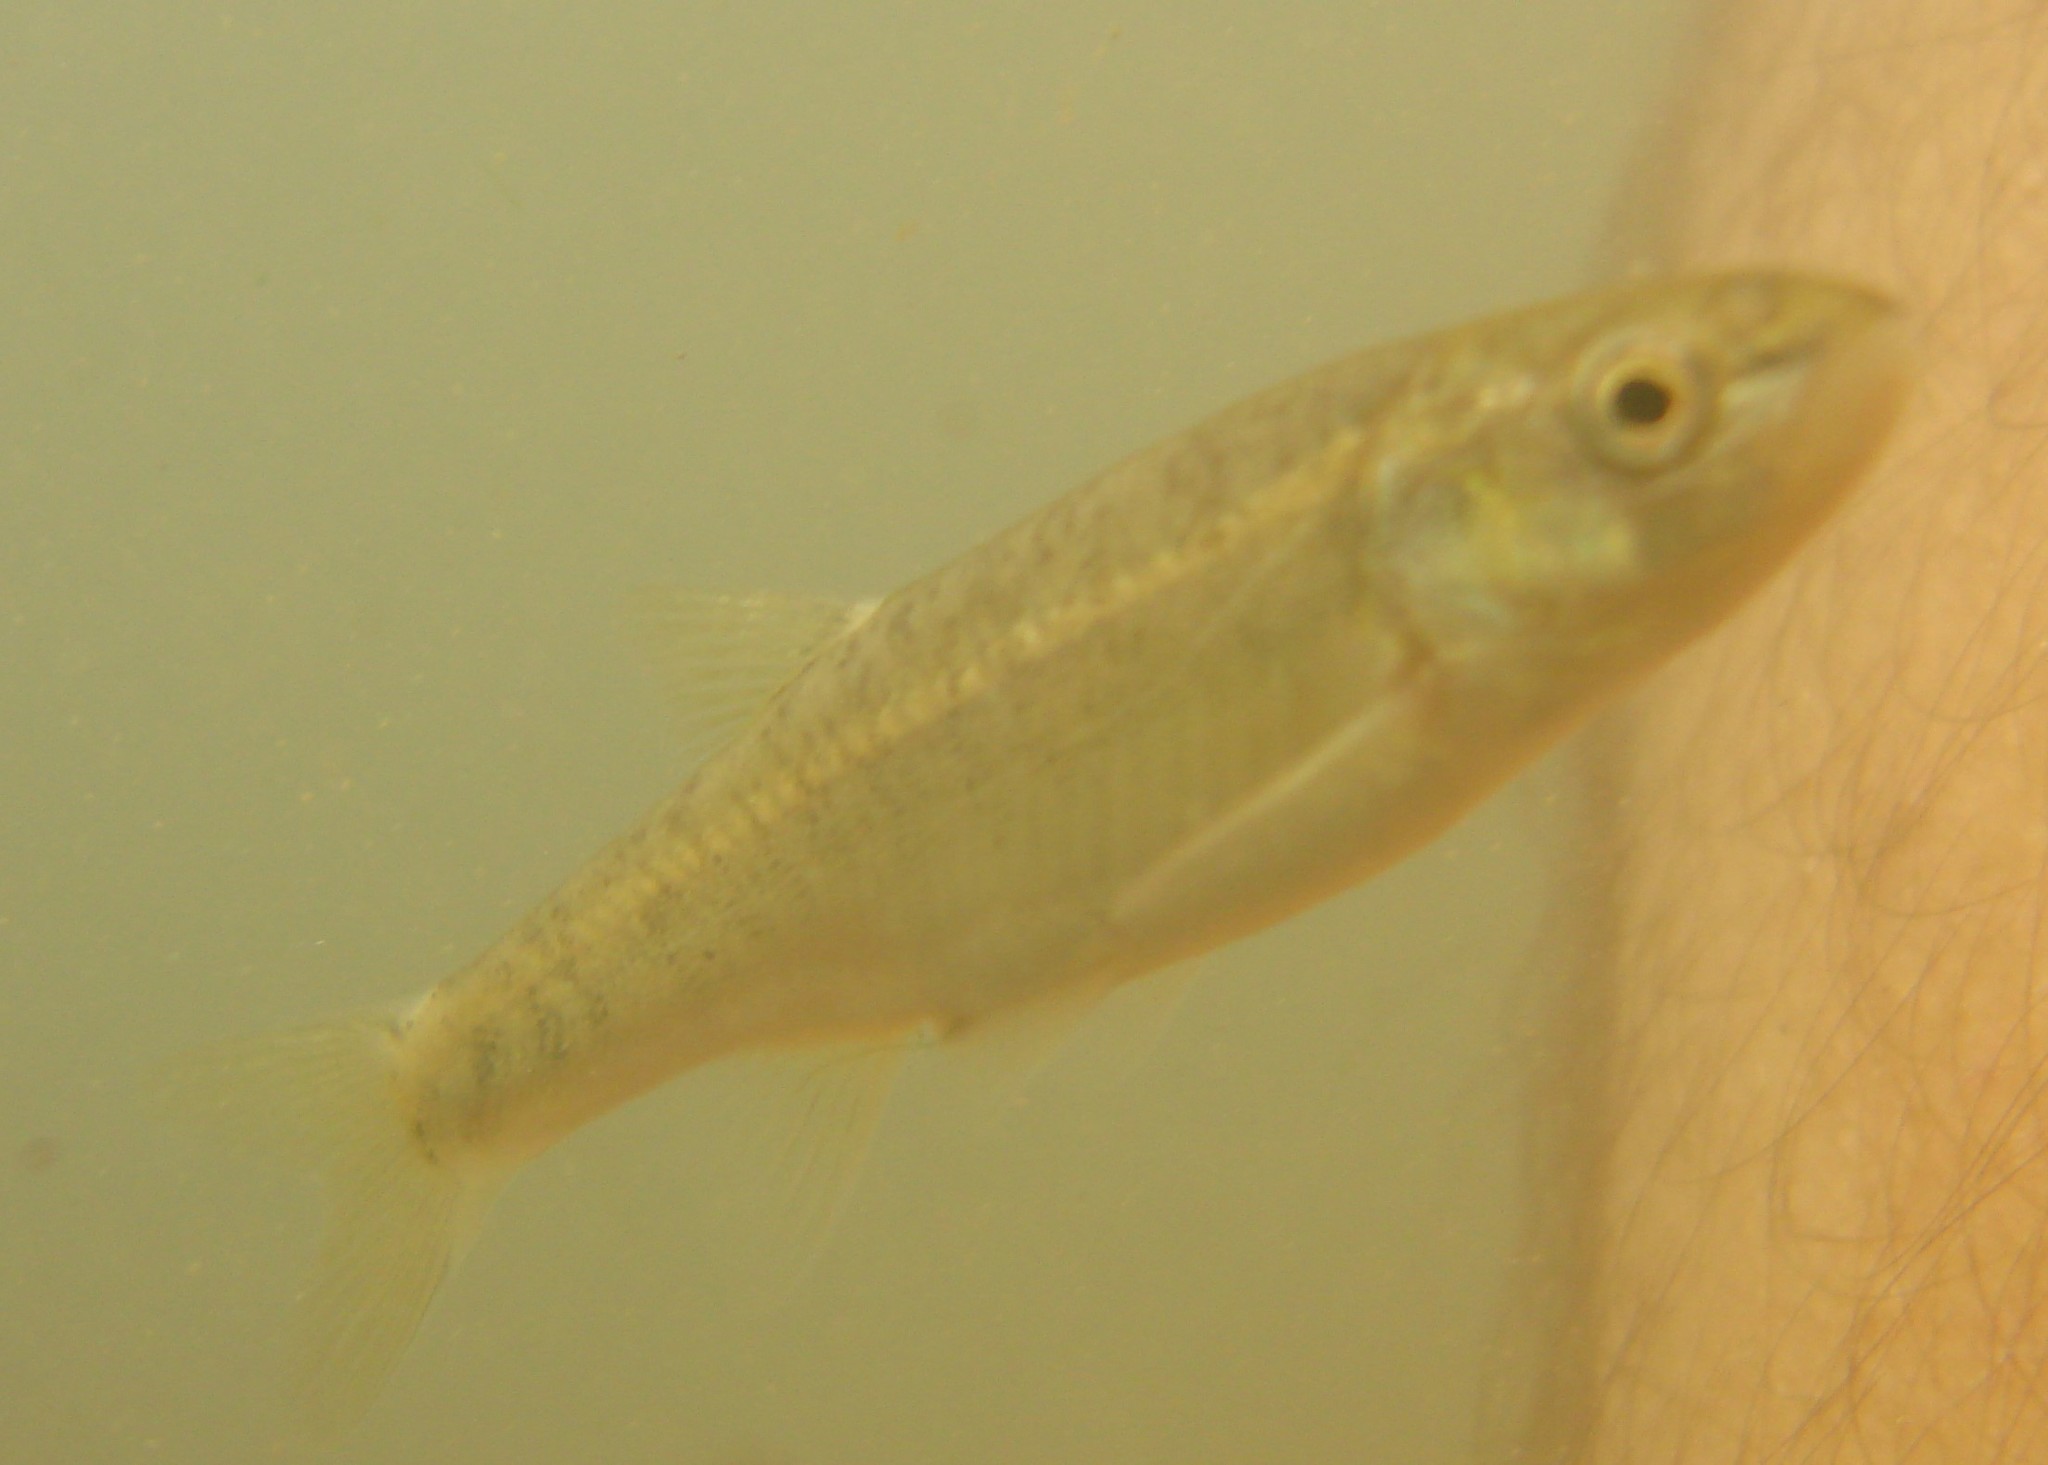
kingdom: Animalia
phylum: Chordata
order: Cypriniformes
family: Cyprinidae
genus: Phoxinus
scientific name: Phoxinus colchicus
